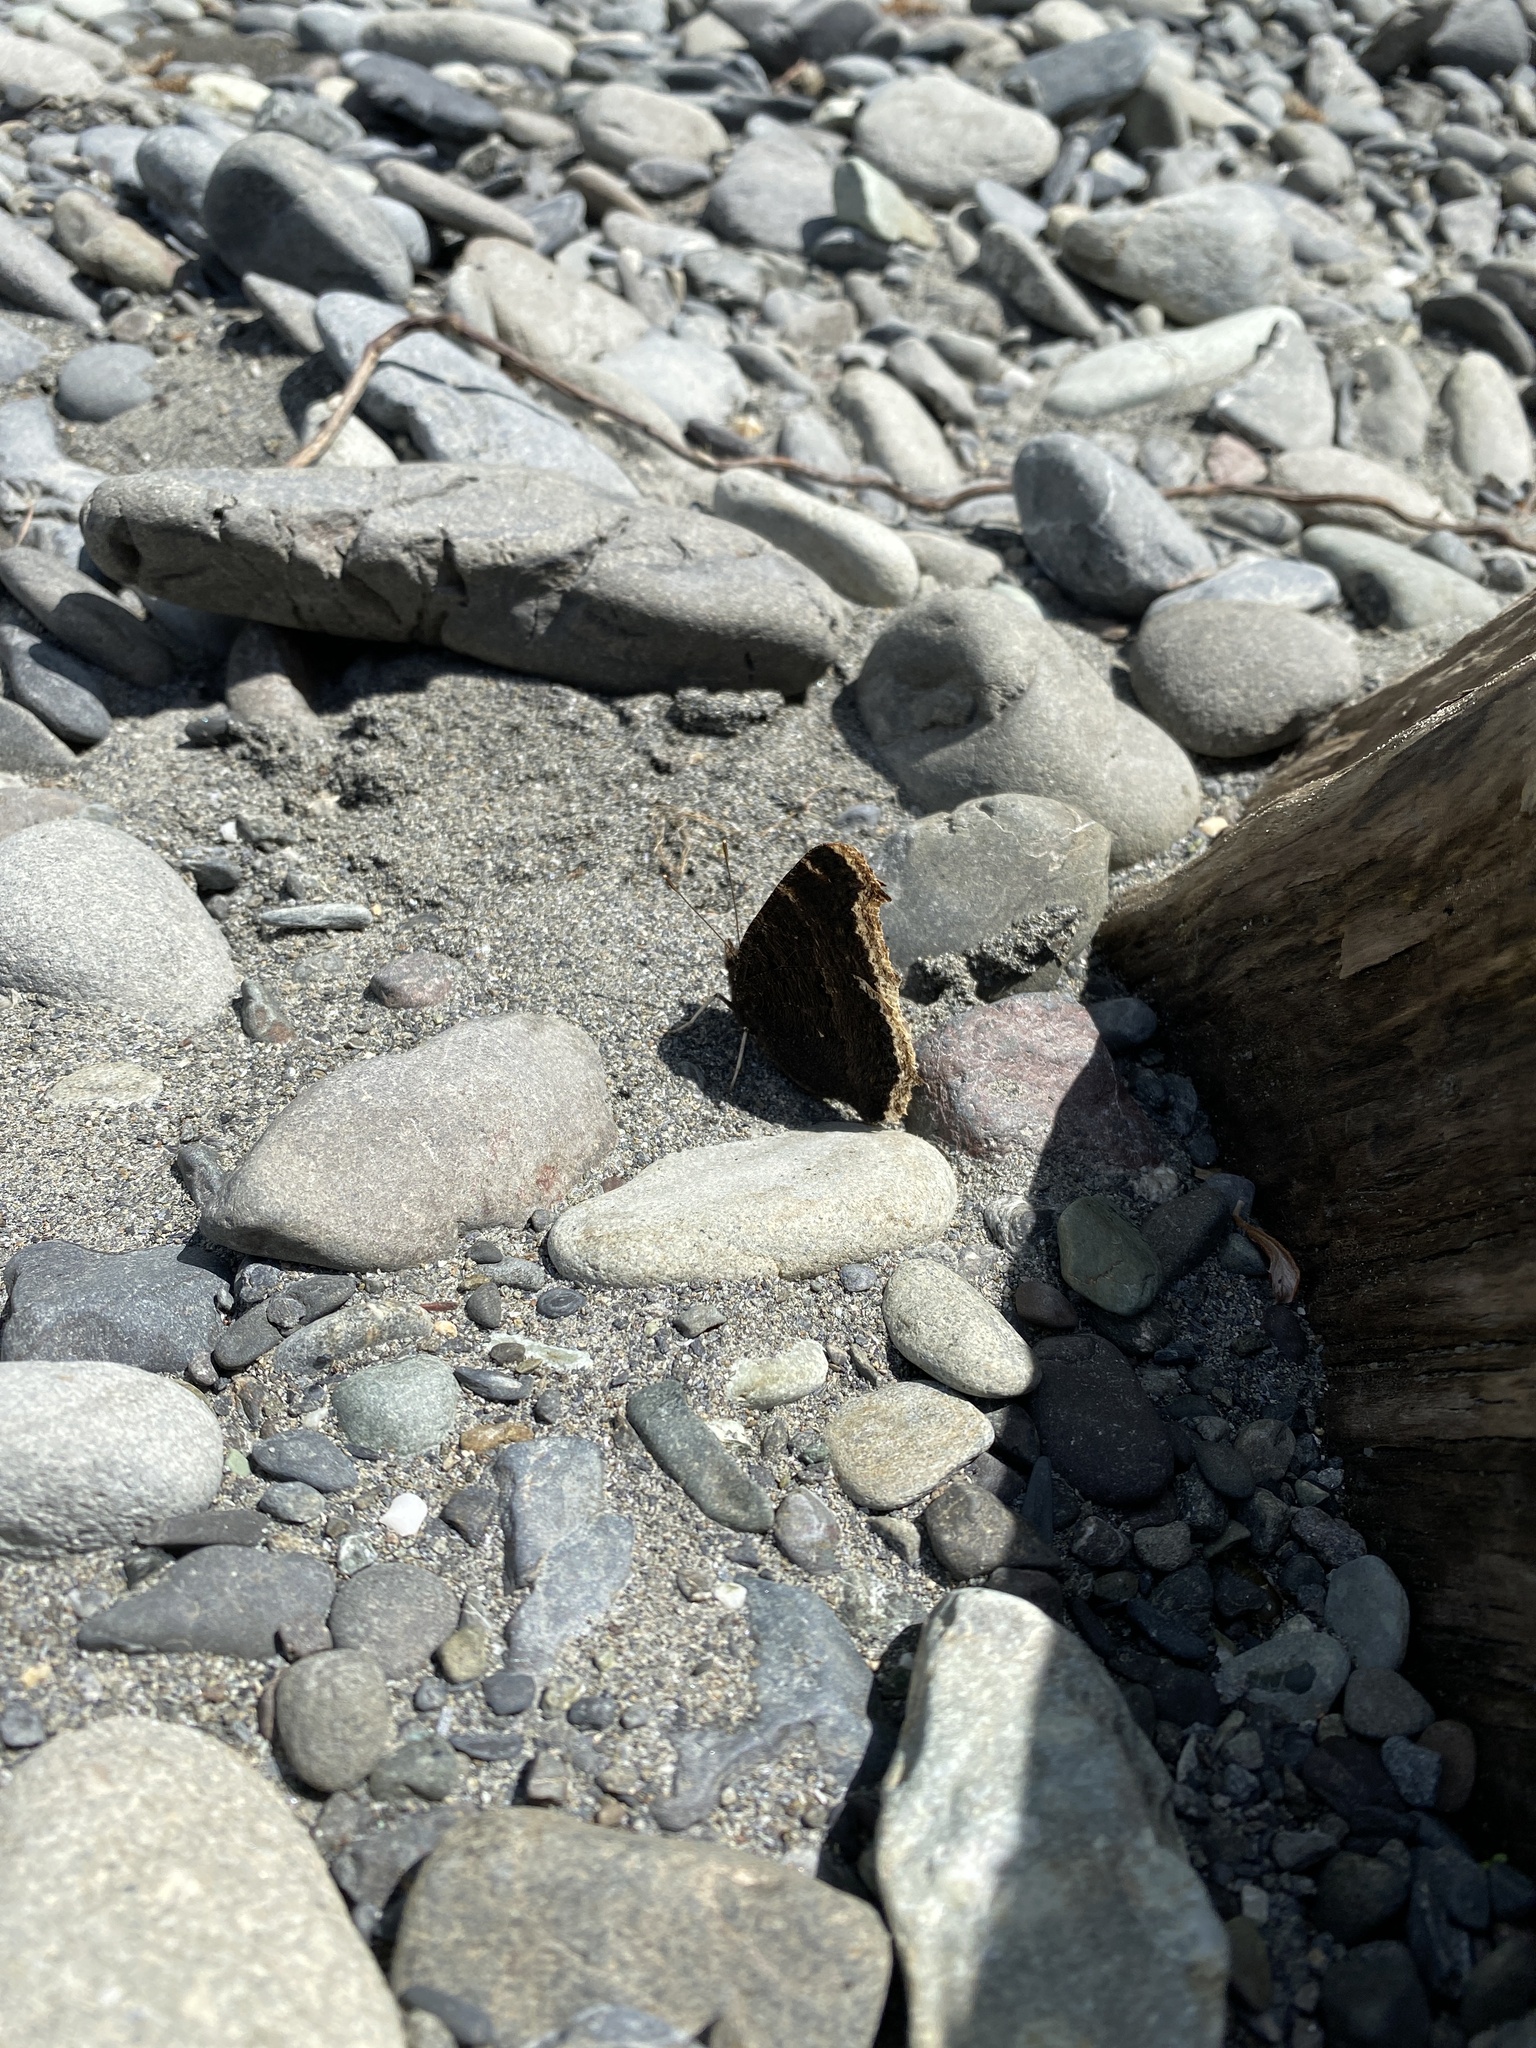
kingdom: Animalia
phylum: Arthropoda
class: Insecta
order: Lepidoptera
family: Nymphalidae
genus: Nymphalis
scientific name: Nymphalis antiopa
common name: Camberwell beauty
